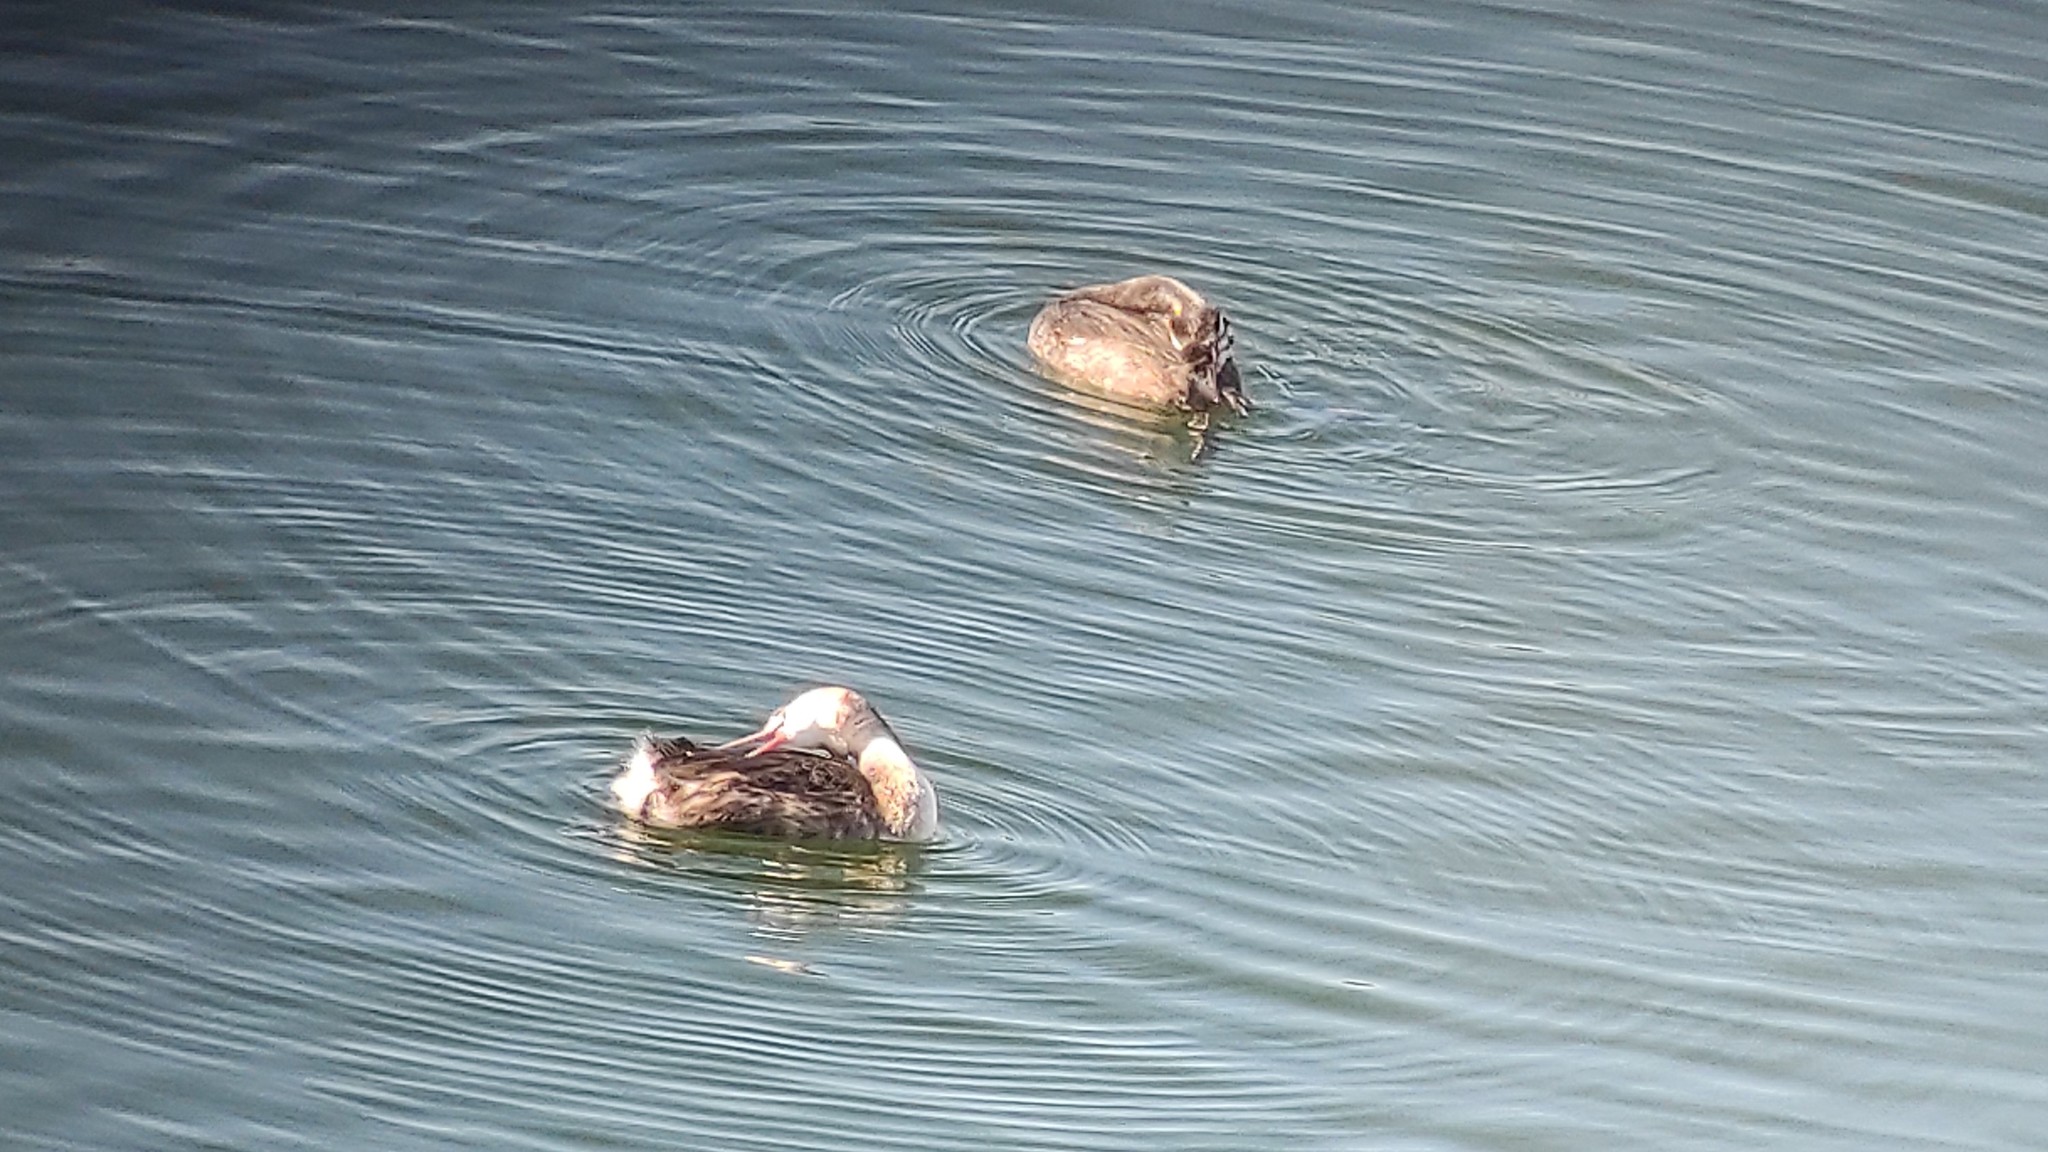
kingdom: Animalia
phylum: Chordata
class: Aves
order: Podicipediformes
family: Podicipedidae
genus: Podiceps
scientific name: Podiceps cristatus
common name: Great crested grebe
